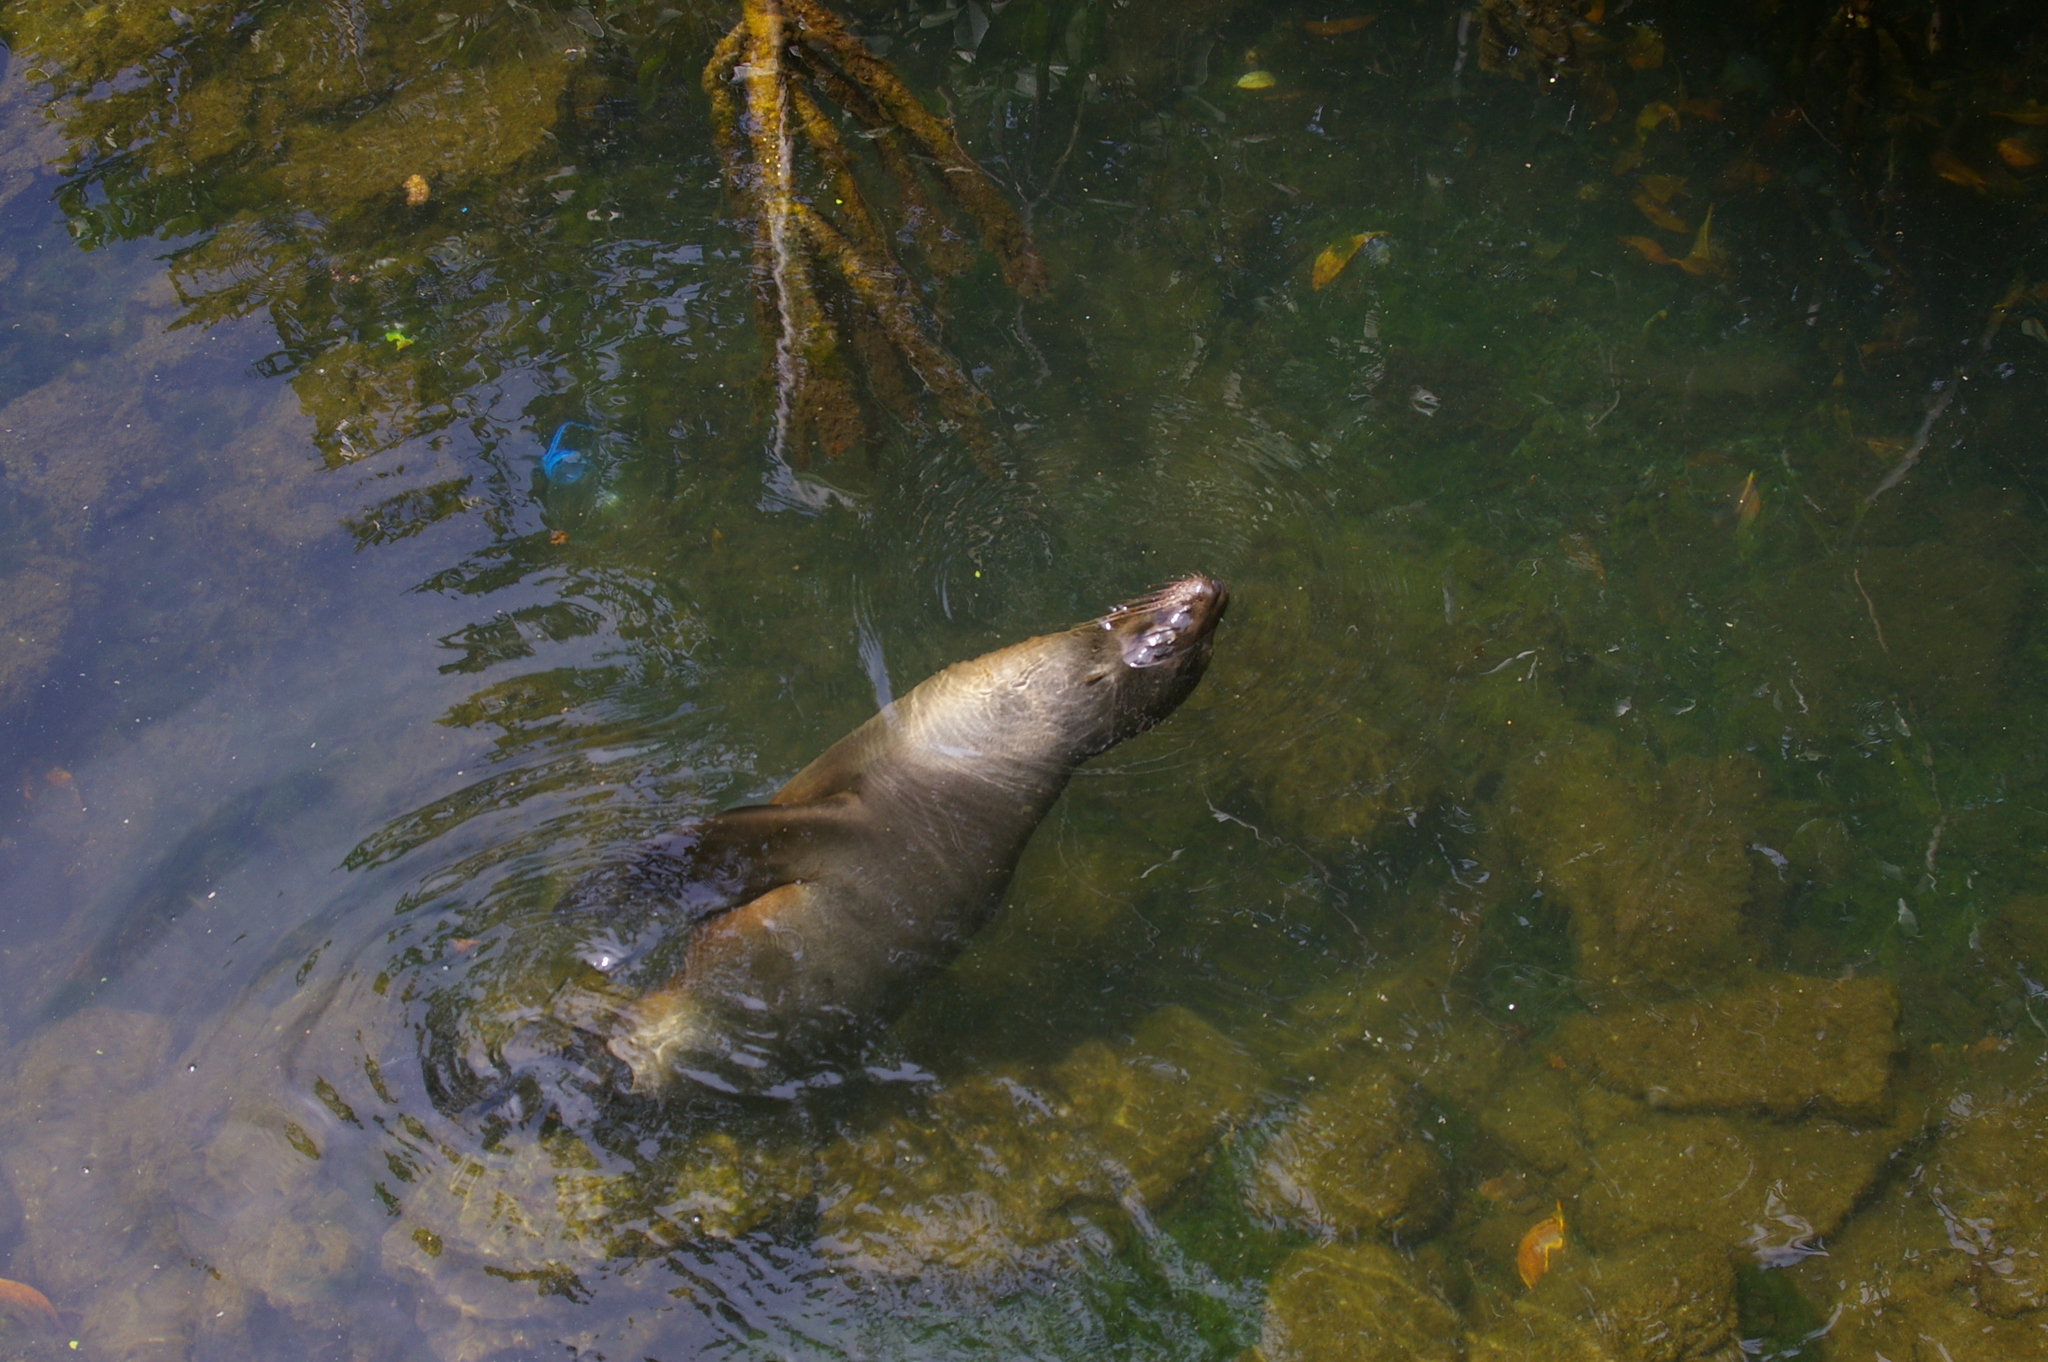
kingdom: Animalia
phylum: Chordata
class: Mammalia
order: Carnivora
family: Otariidae
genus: Zalophus
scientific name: Zalophus wollebaeki
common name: Galapagos sea lion
